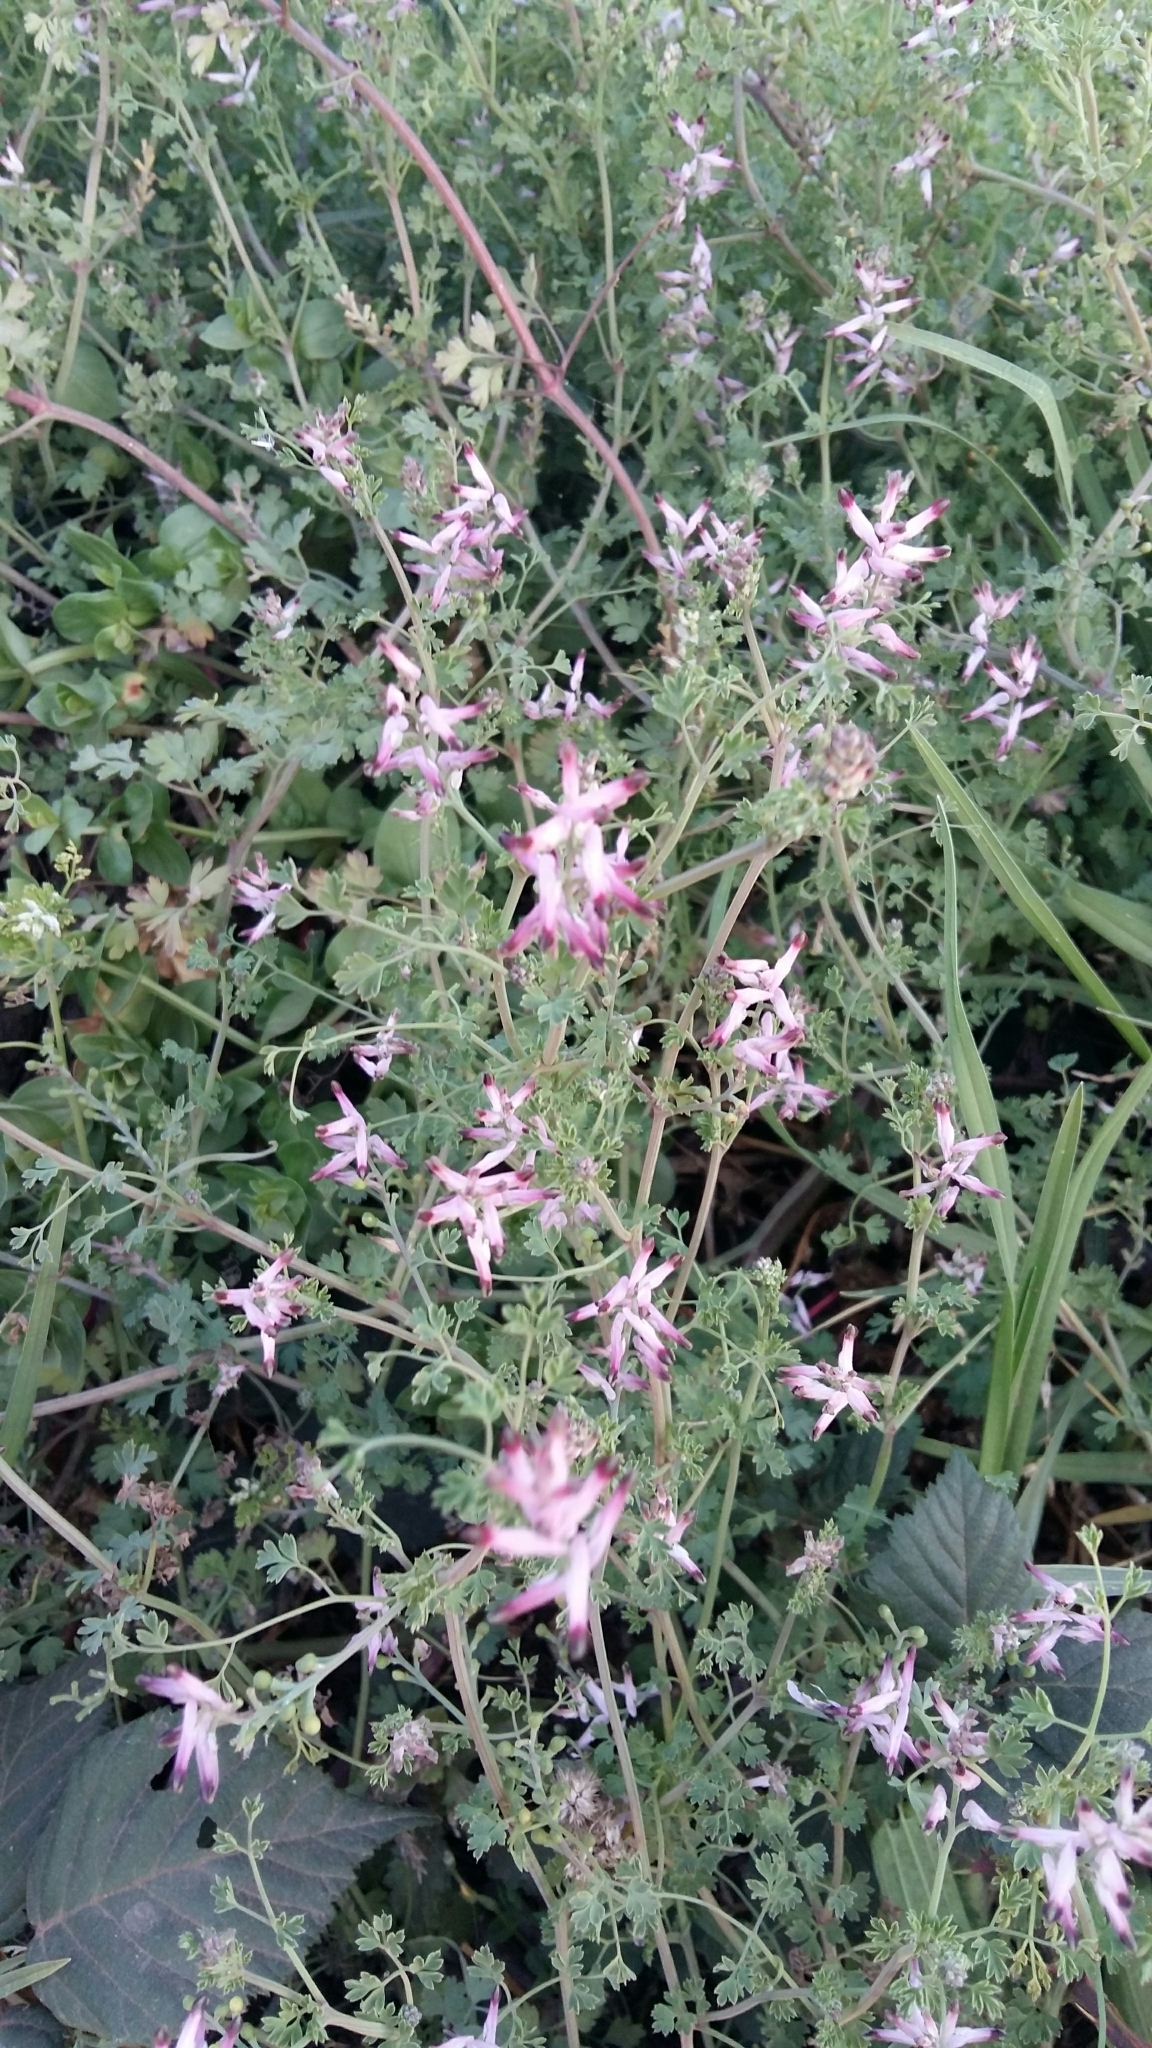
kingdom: Plantae
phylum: Tracheophyta
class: Magnoliopsida
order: Ranunculales
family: Papaveraceae
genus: Fumaria
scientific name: Fumaria muralis
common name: Common ramping-fumitory
